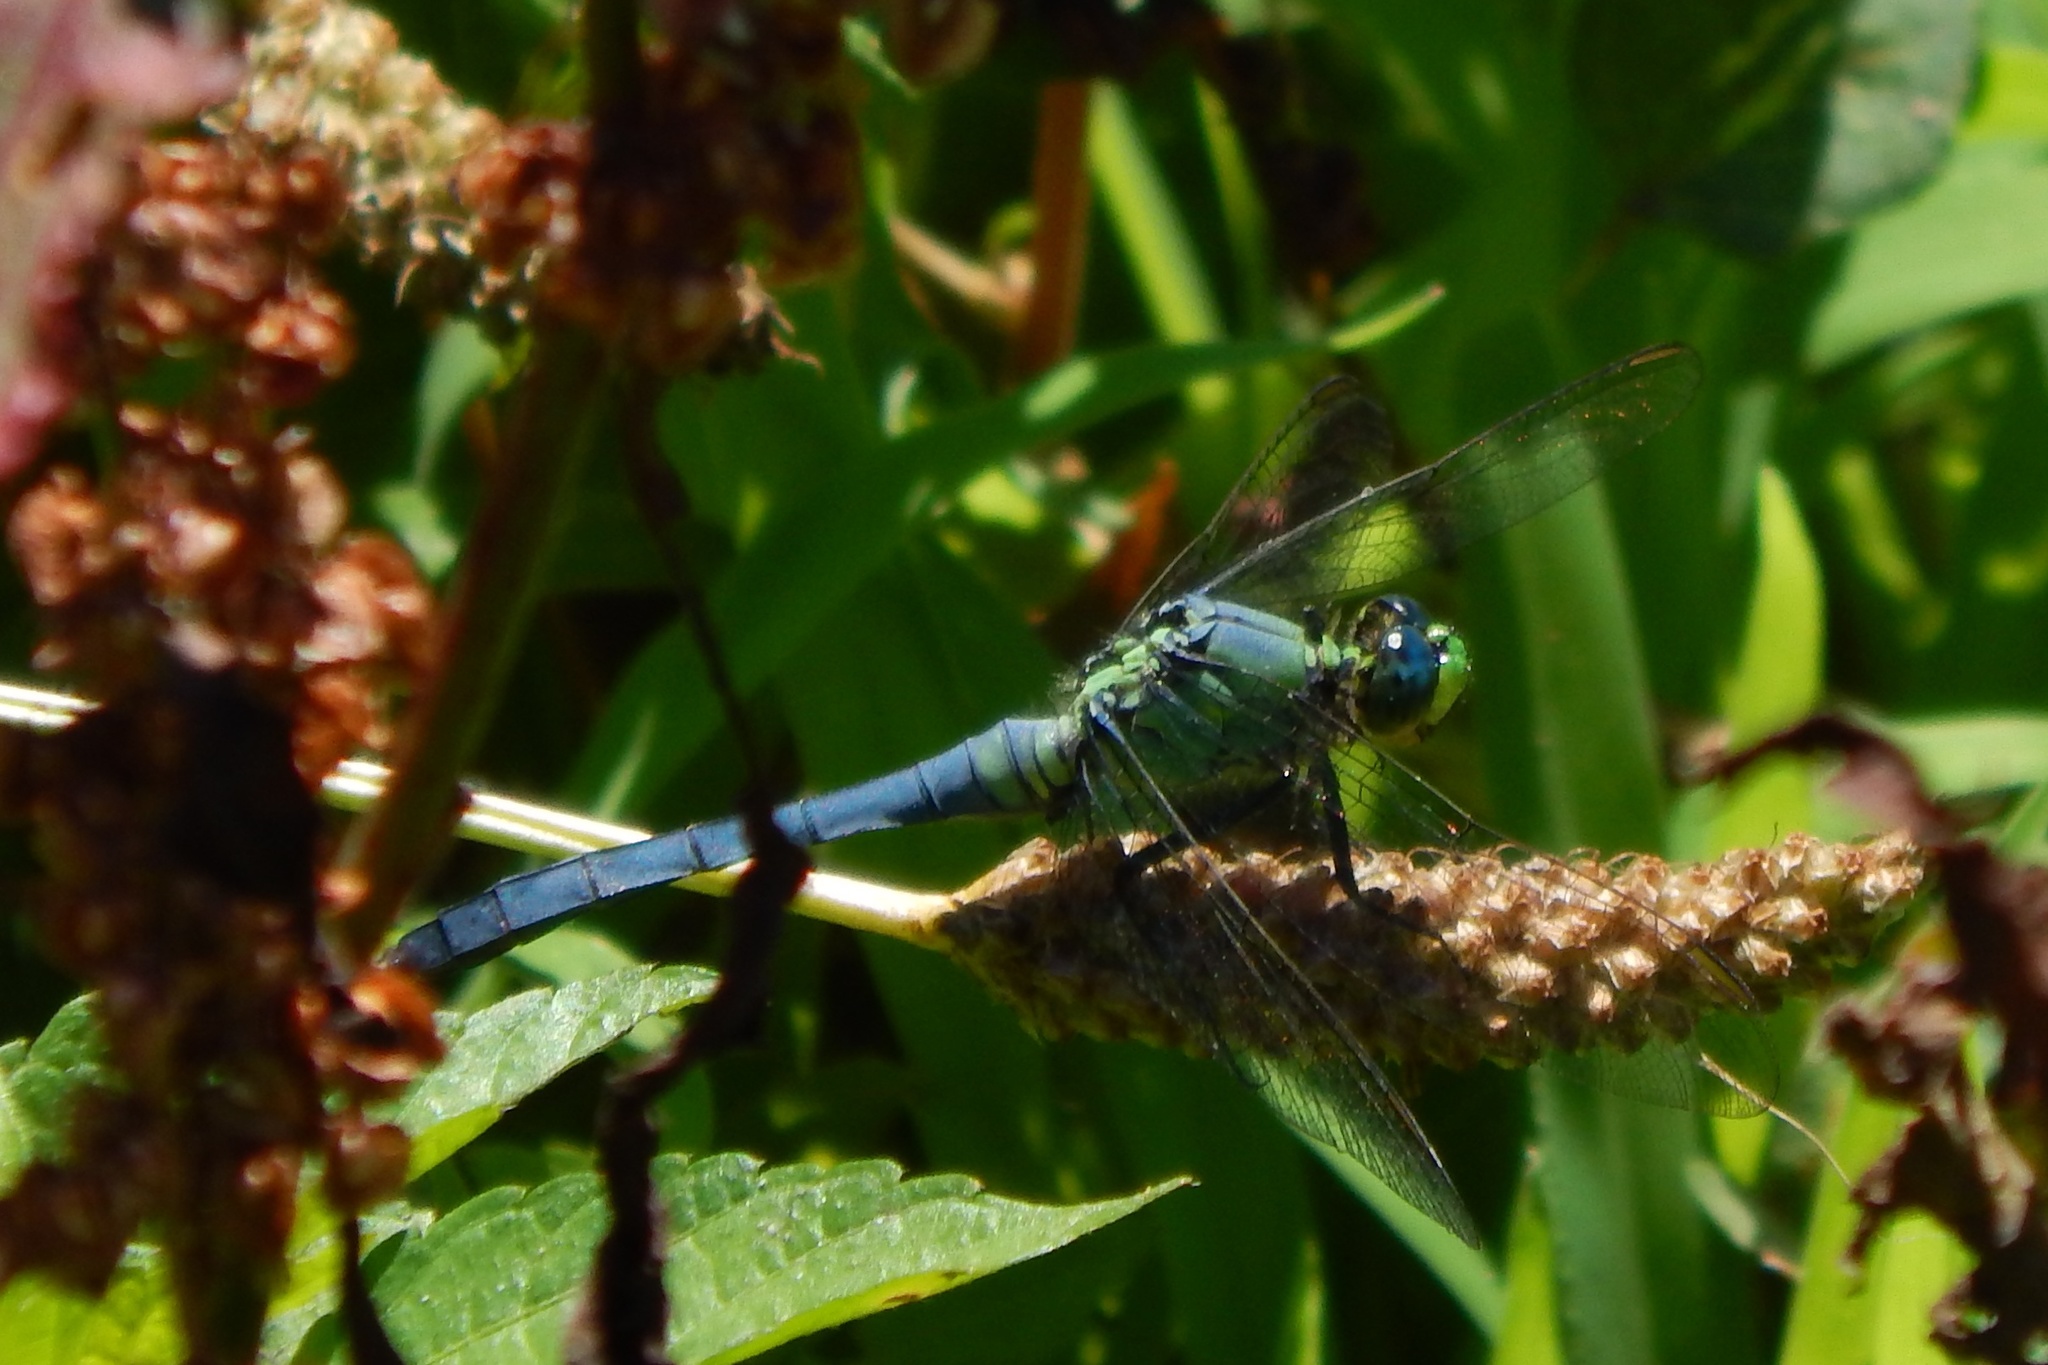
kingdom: Animalia
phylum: Arthropoda
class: Insecta
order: Odonata
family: Libellulidae
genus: Erythemis
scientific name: Erythemis simplicicollis
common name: Eastern pondhawk
